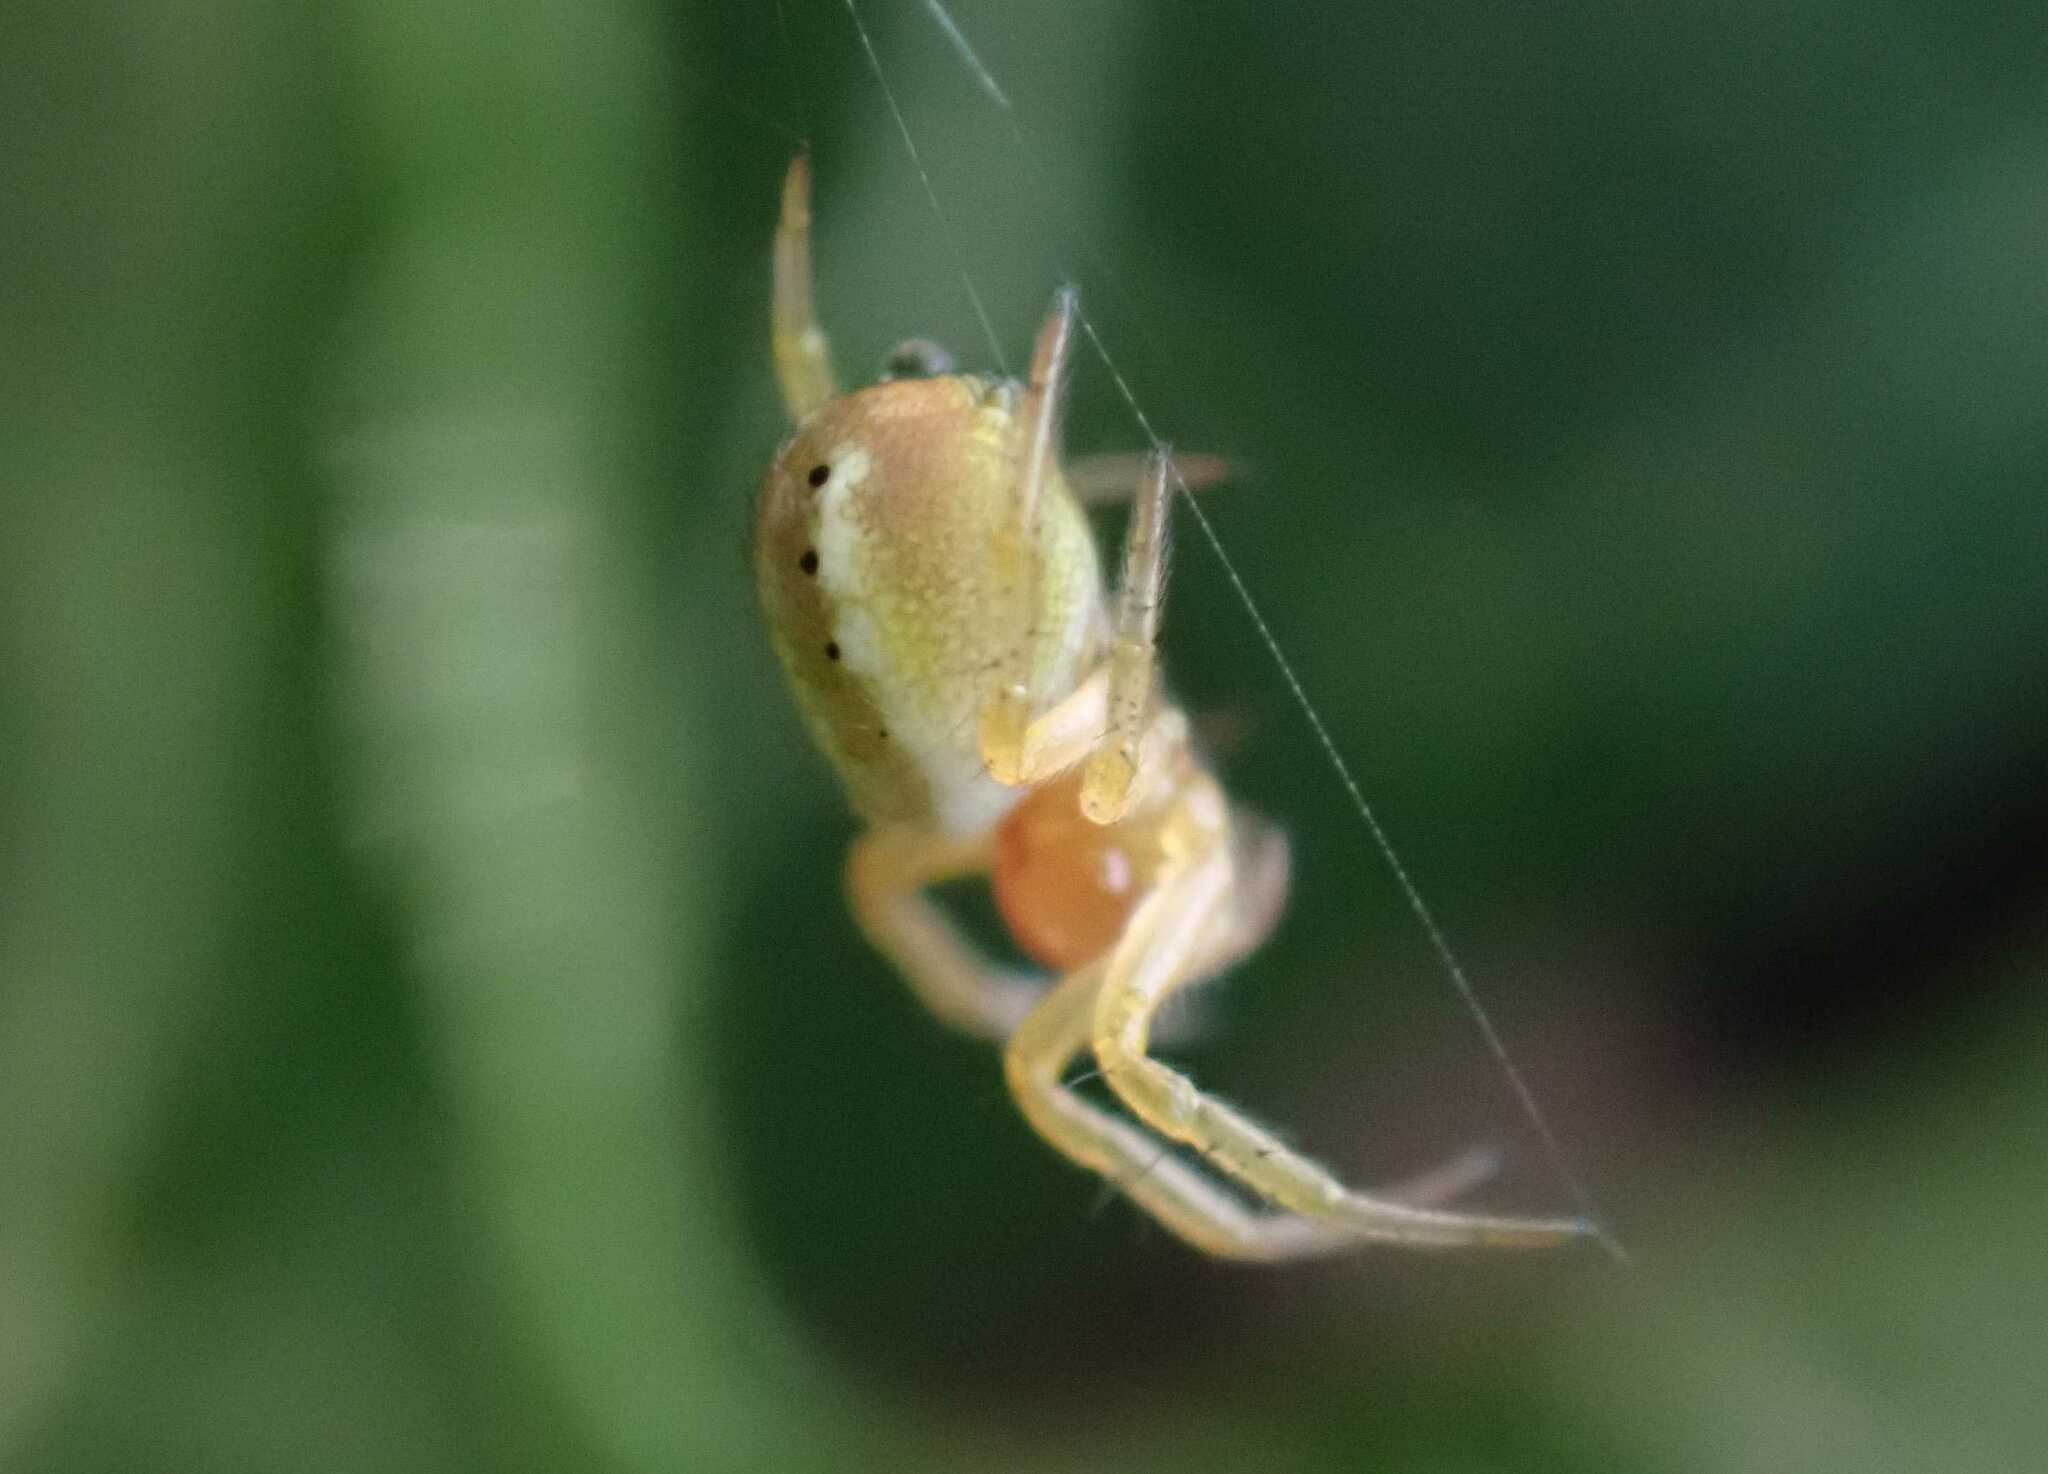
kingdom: Animalia
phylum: Arthropoda
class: Arachnida
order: Araneae
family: Araneidae
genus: Araniella
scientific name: Araniella
